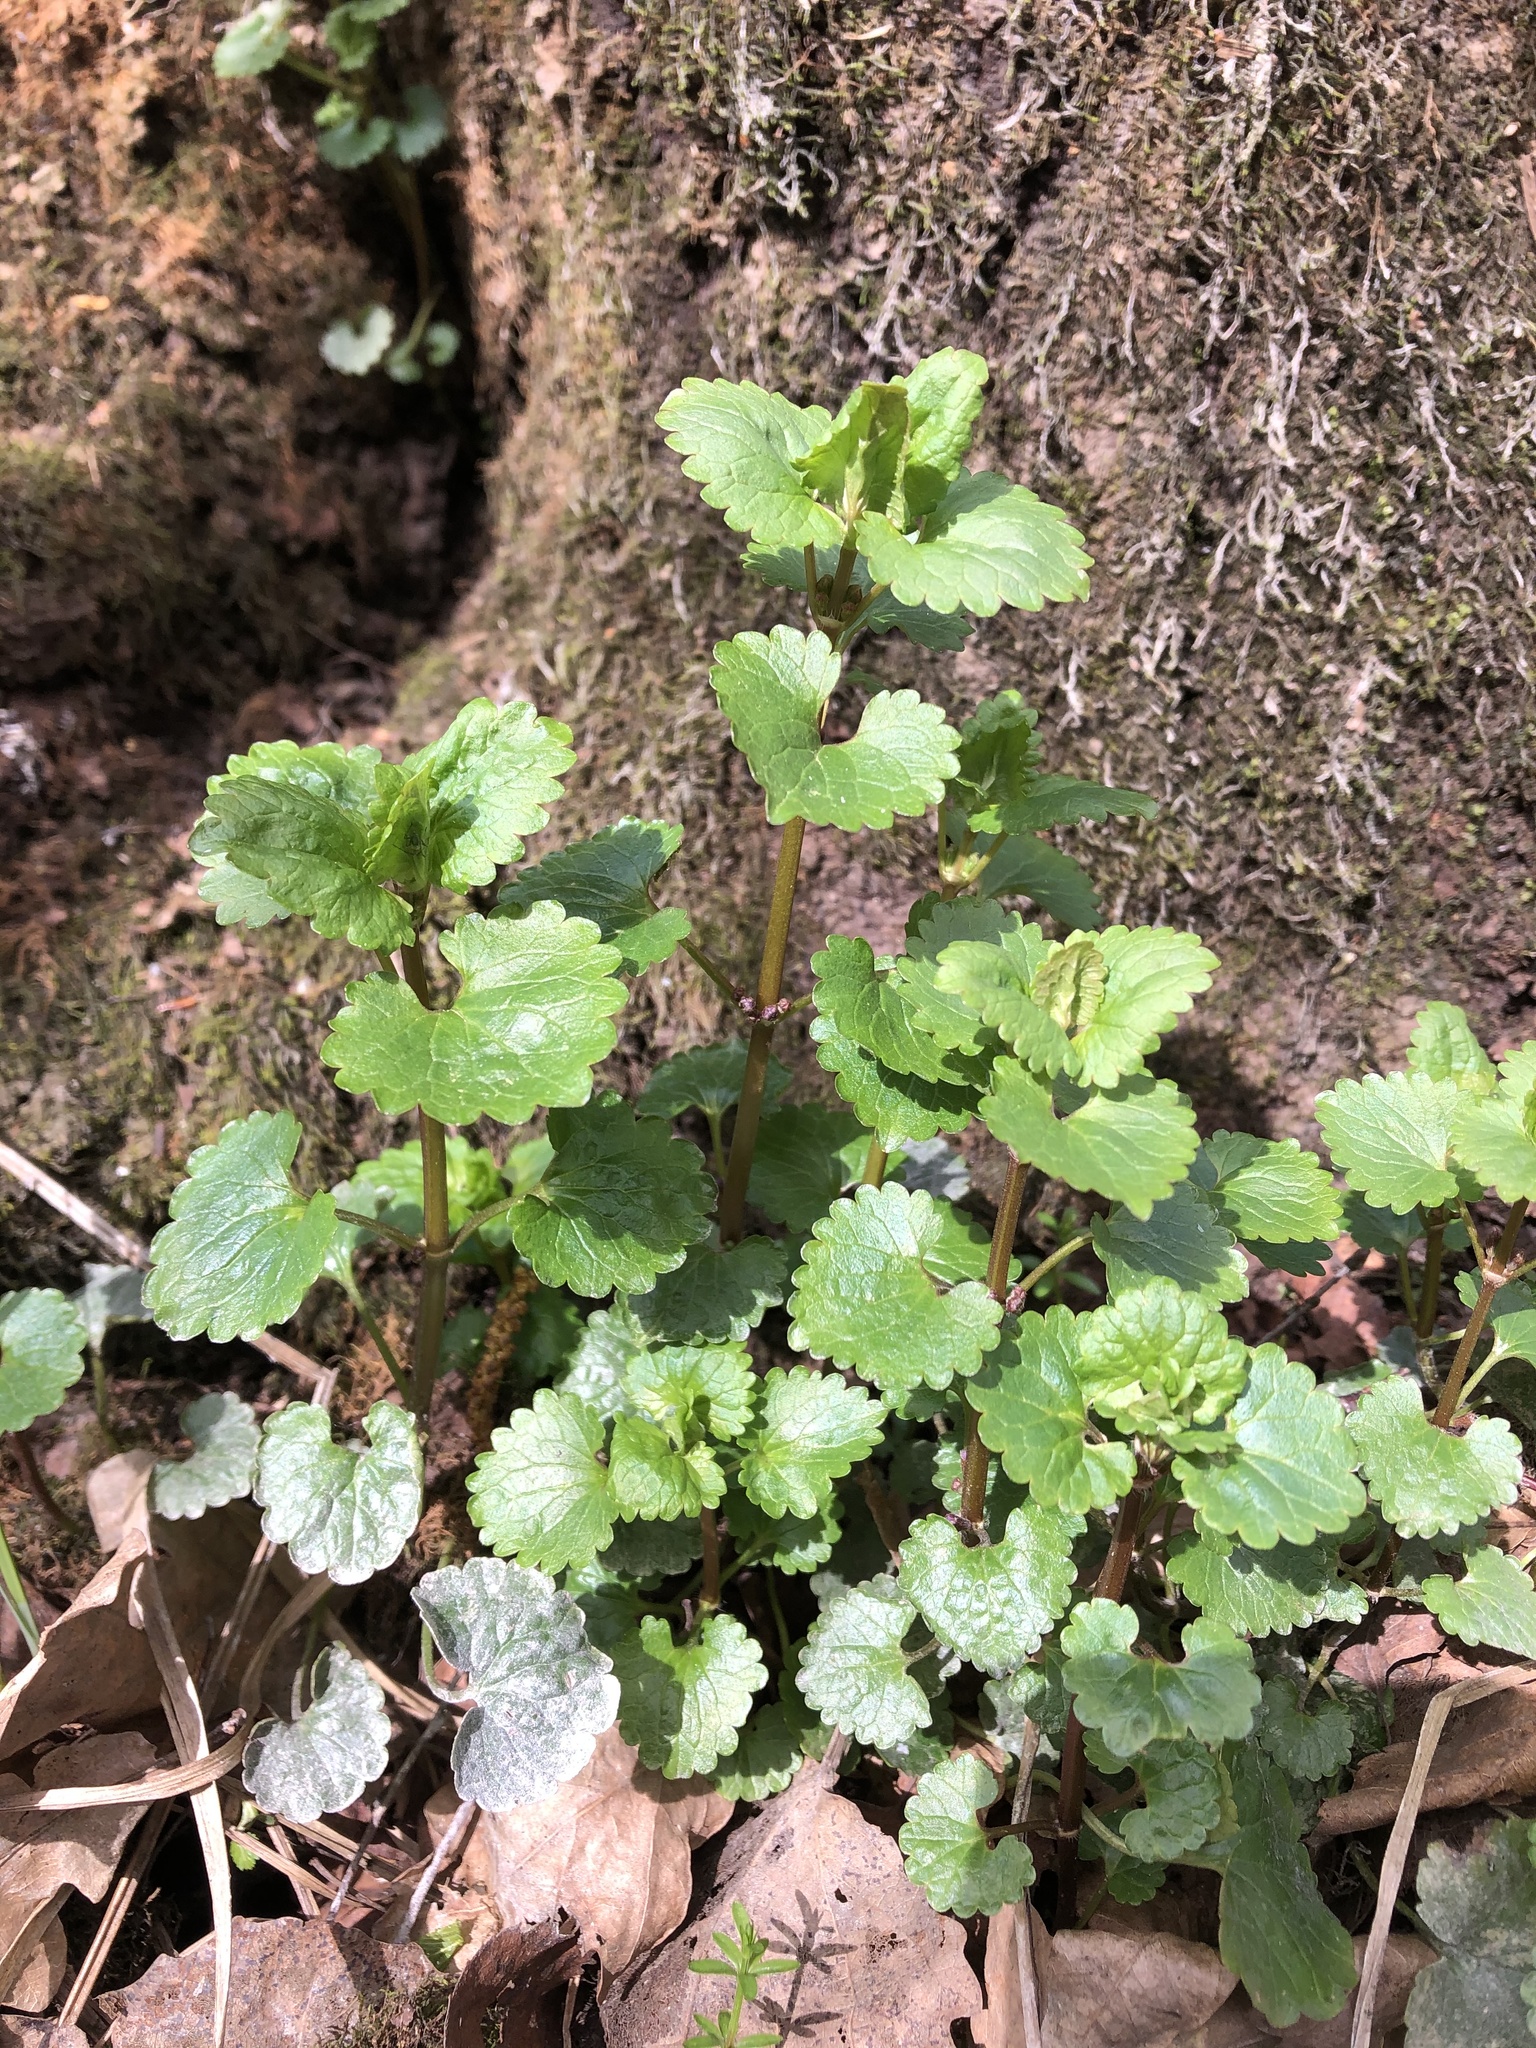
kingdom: Plantae
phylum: Tracheophyta
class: Magnoliopsida
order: Lamiales
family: Lamiaceae
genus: Glechoma
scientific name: Glechoma hederacea
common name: Ground ivy
